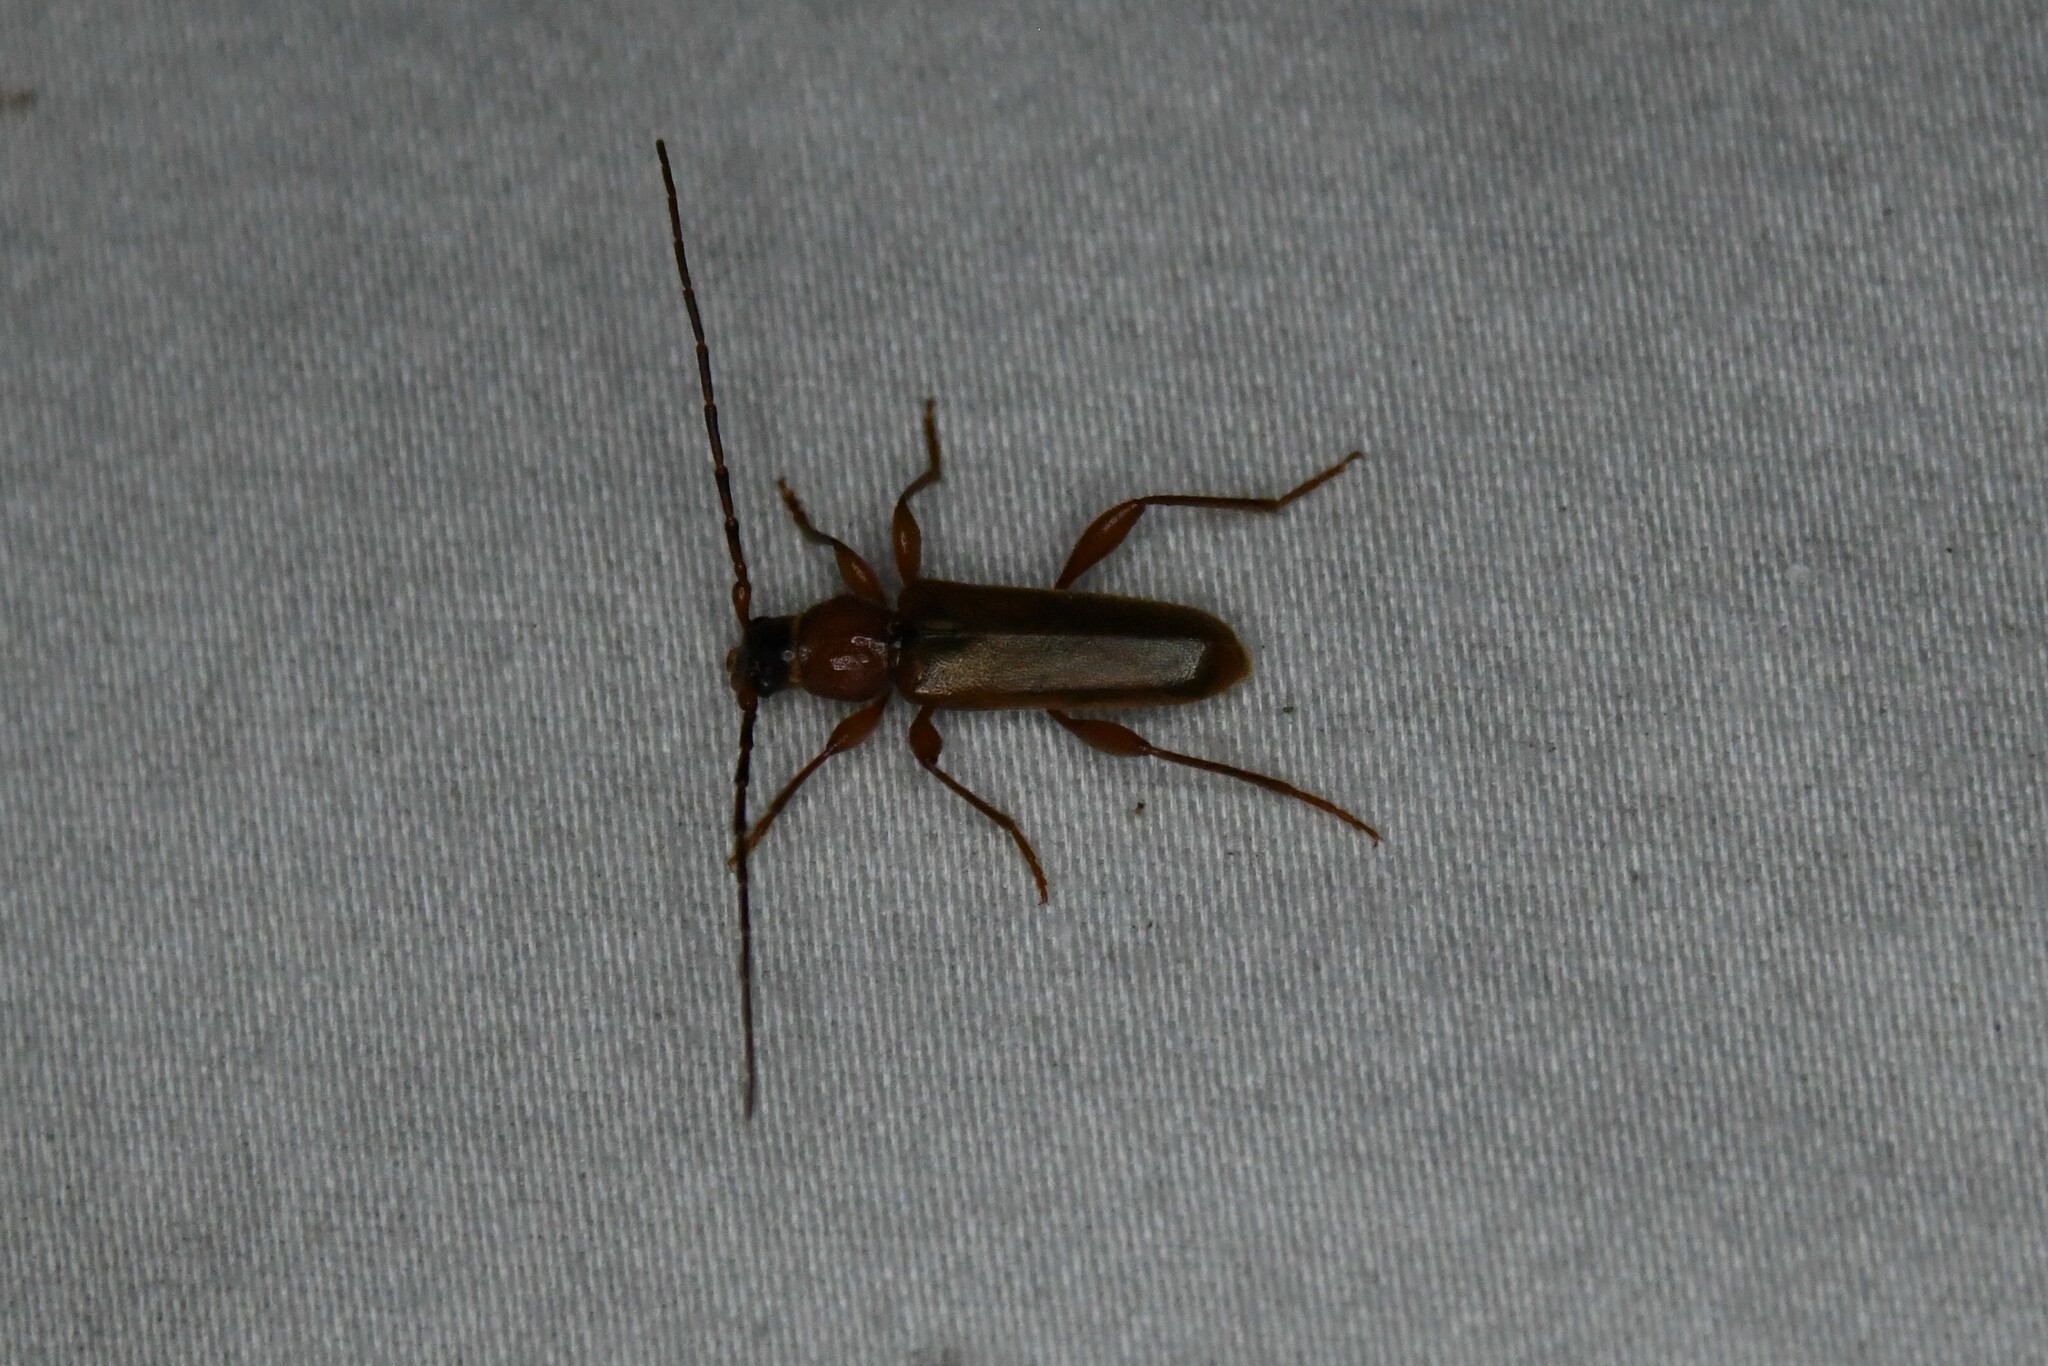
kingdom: Animalia
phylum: Arthropoda
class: Insecta
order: Coleoptera
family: Cerambycidae
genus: Phymatodes
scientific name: Phymatodes testaceus
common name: Long-horned beetle
